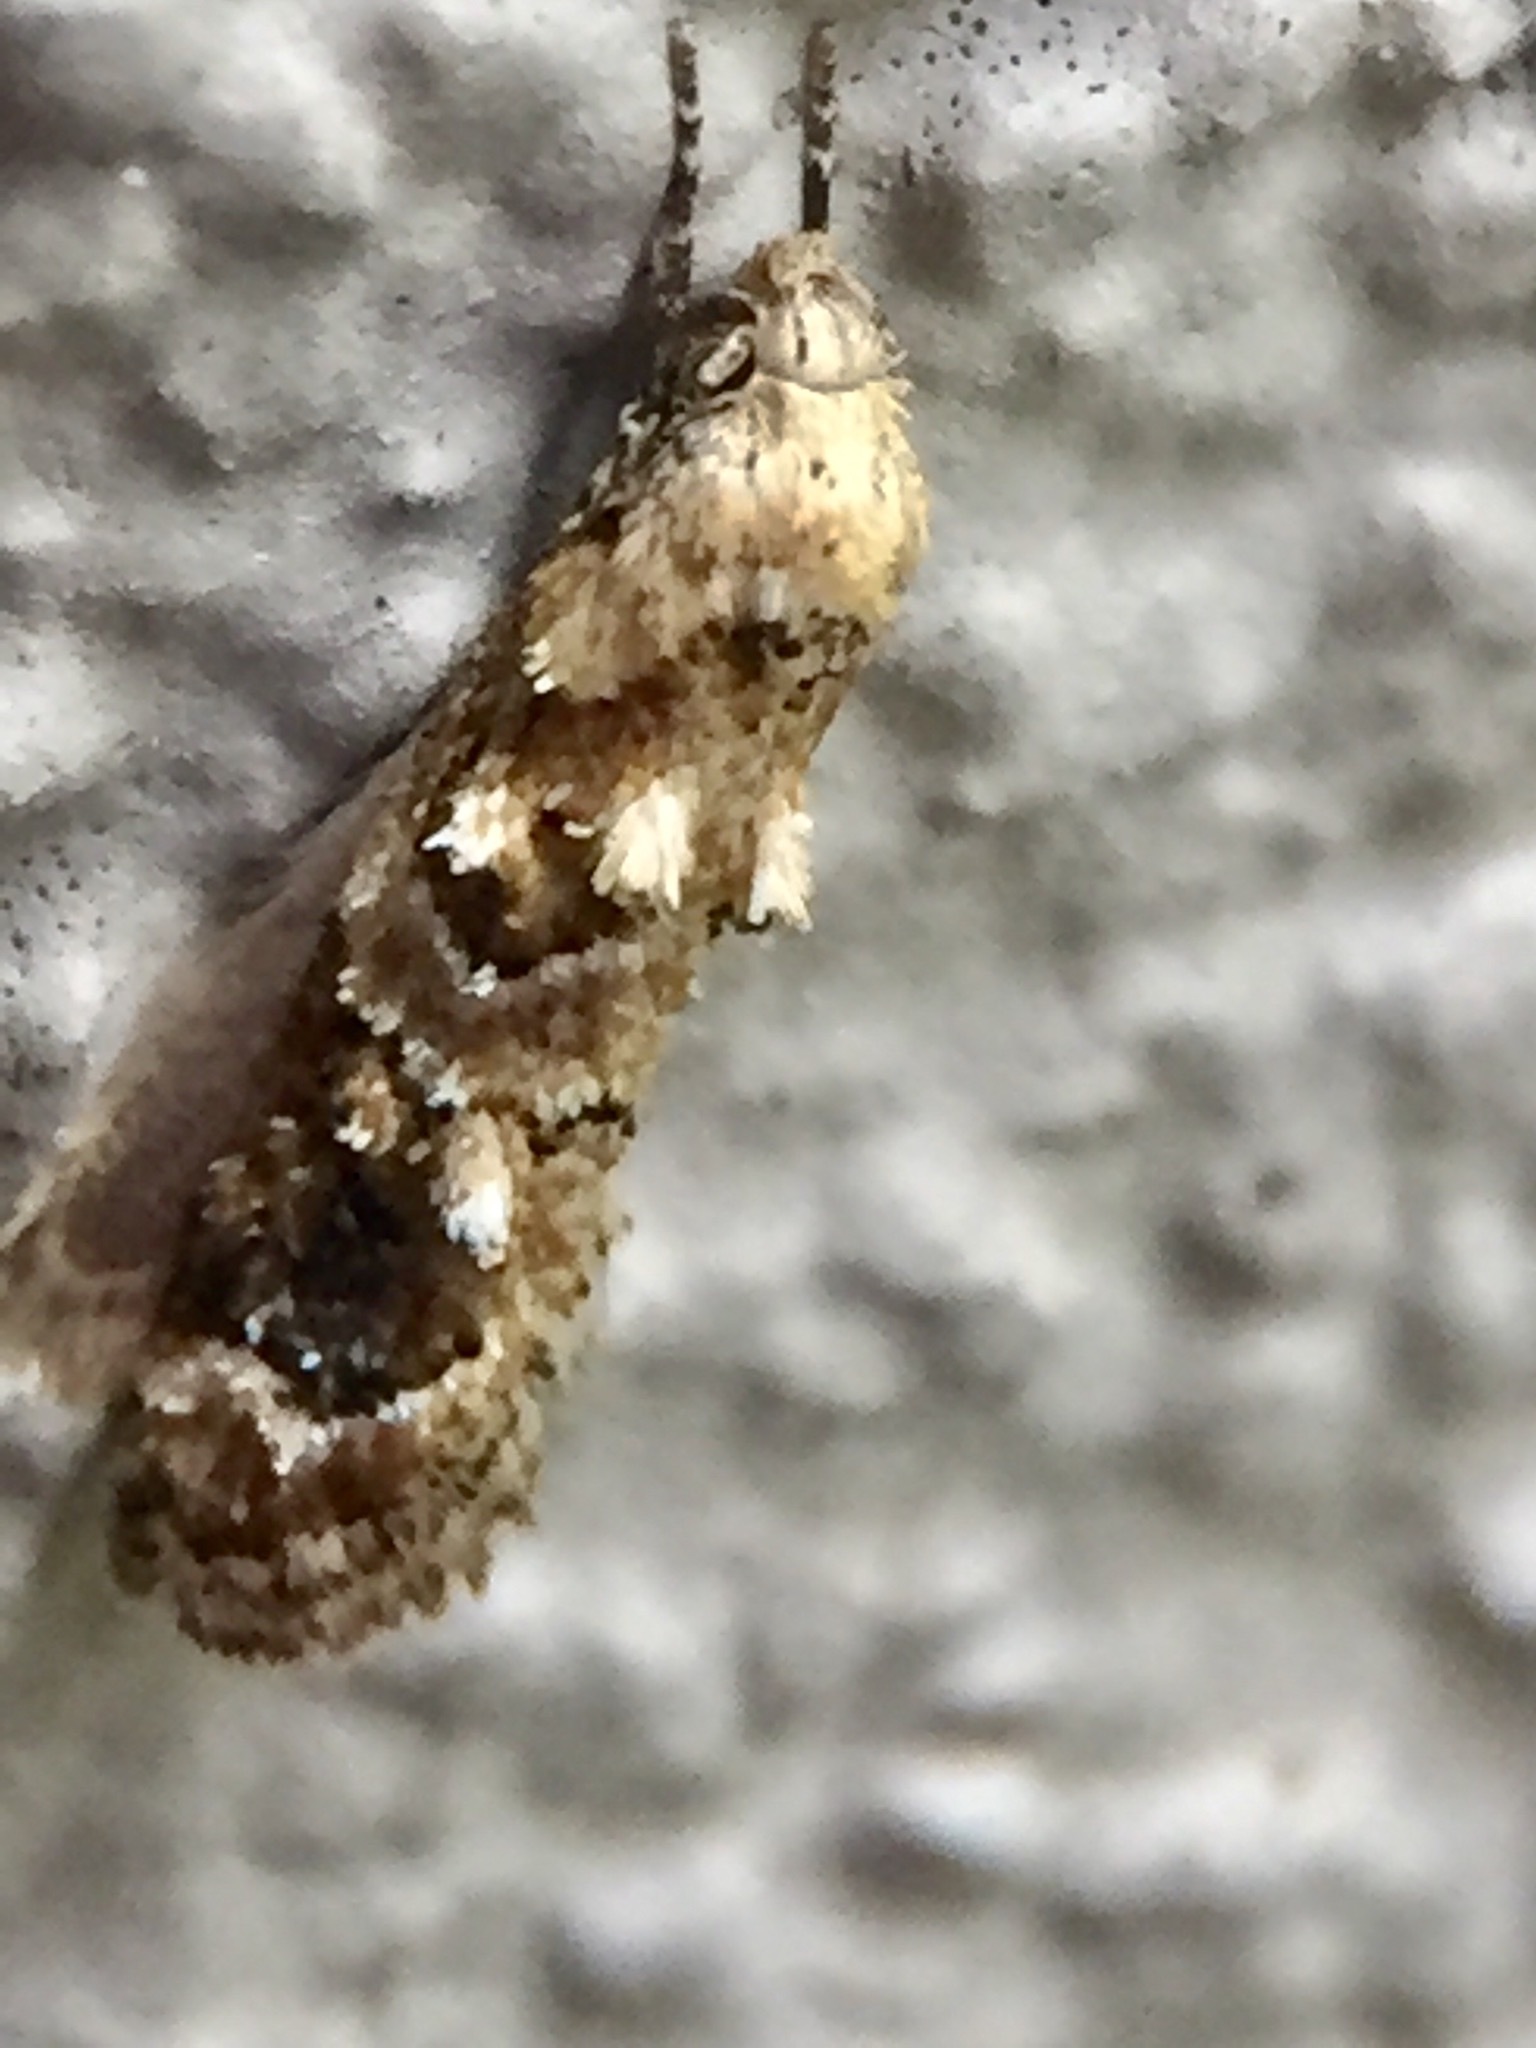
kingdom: Animalia
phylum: Arthropoda
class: Insecta
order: Lepidoptera
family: Oecophoridae
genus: Trachypepla
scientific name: Trachypepla aspidephora
